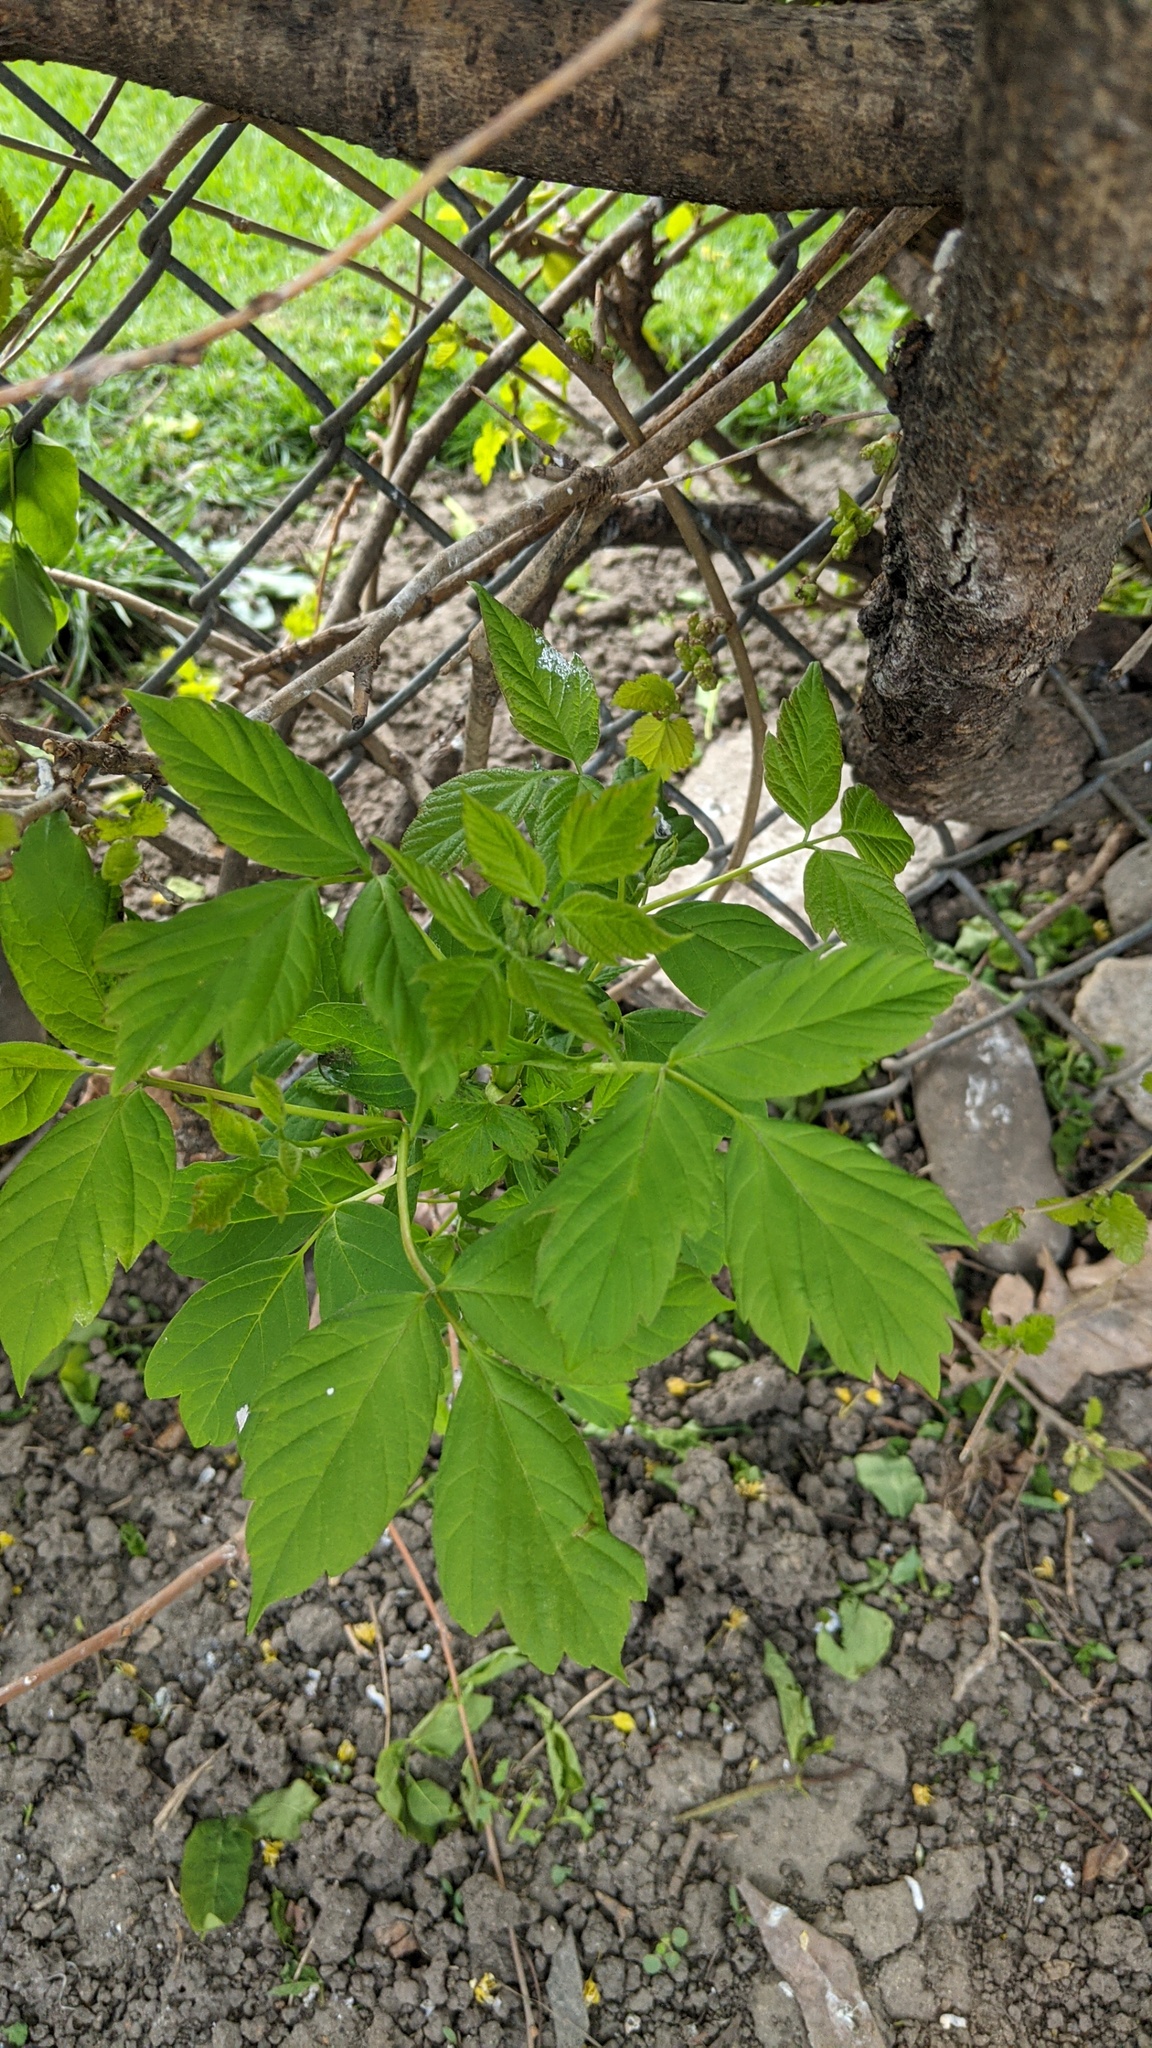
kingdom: Plantae
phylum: Tracheophyta
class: Magnoliopsida
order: Sapindales
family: Sapindaceae
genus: Acer
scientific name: Acer negundo
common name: Ashleaf maple
